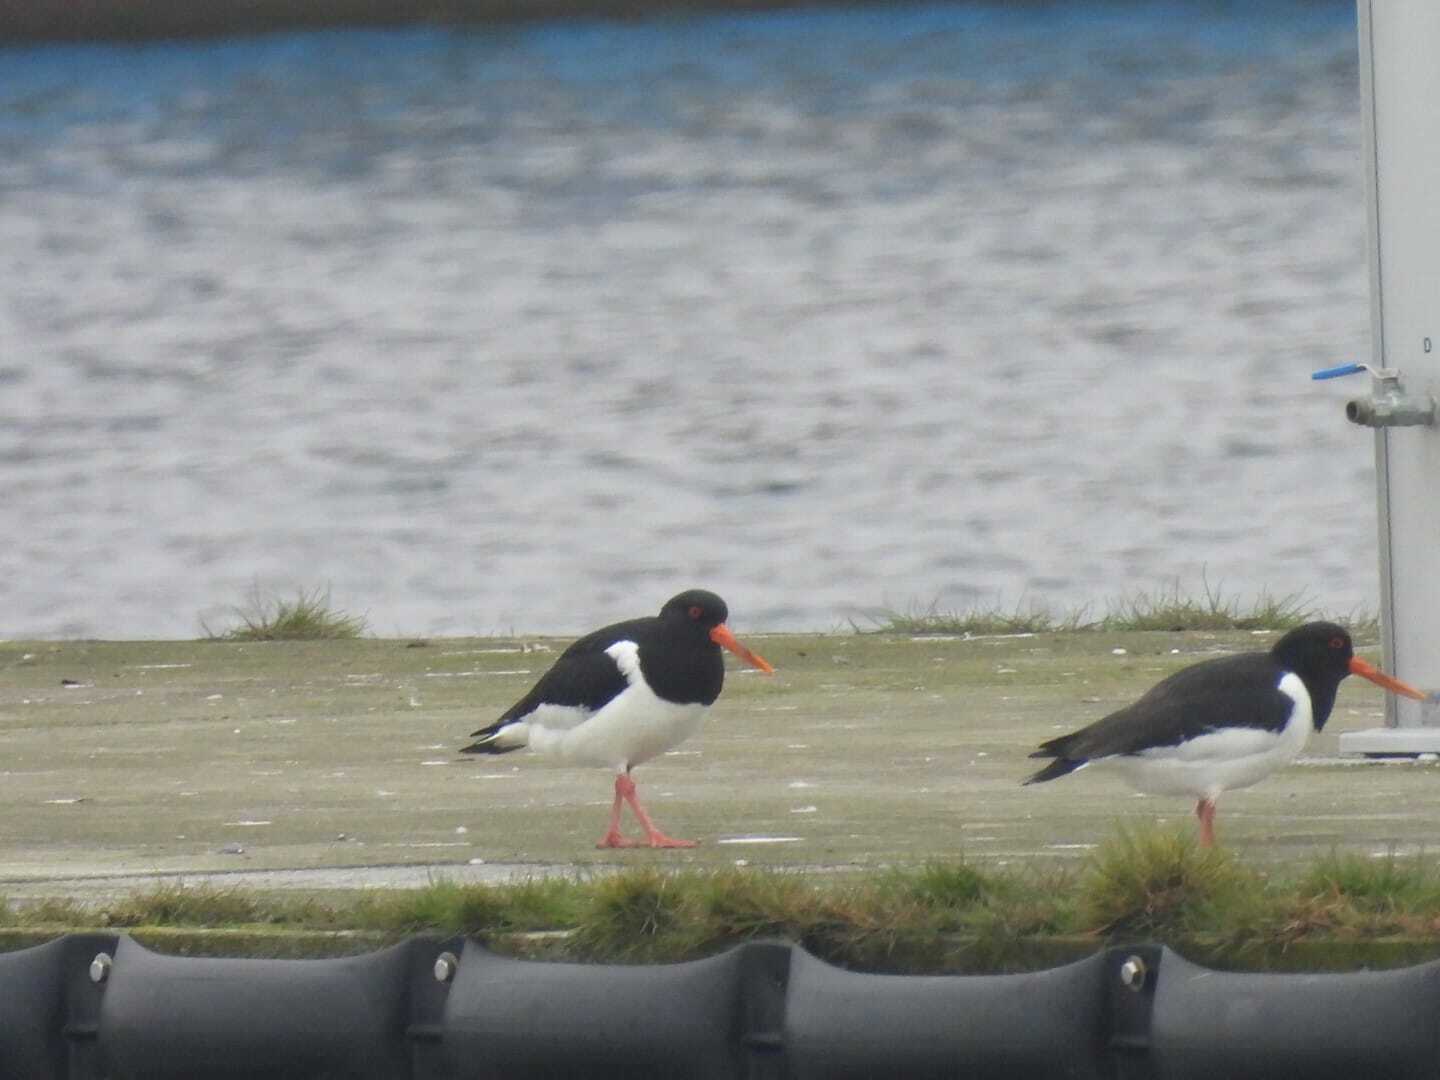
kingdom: Animalia
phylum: Chordata
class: Aves
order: Charadriiformes
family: Haematopodidae
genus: Haematopus
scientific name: Haematopus ostralegus
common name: Eurasian oystercatcher
